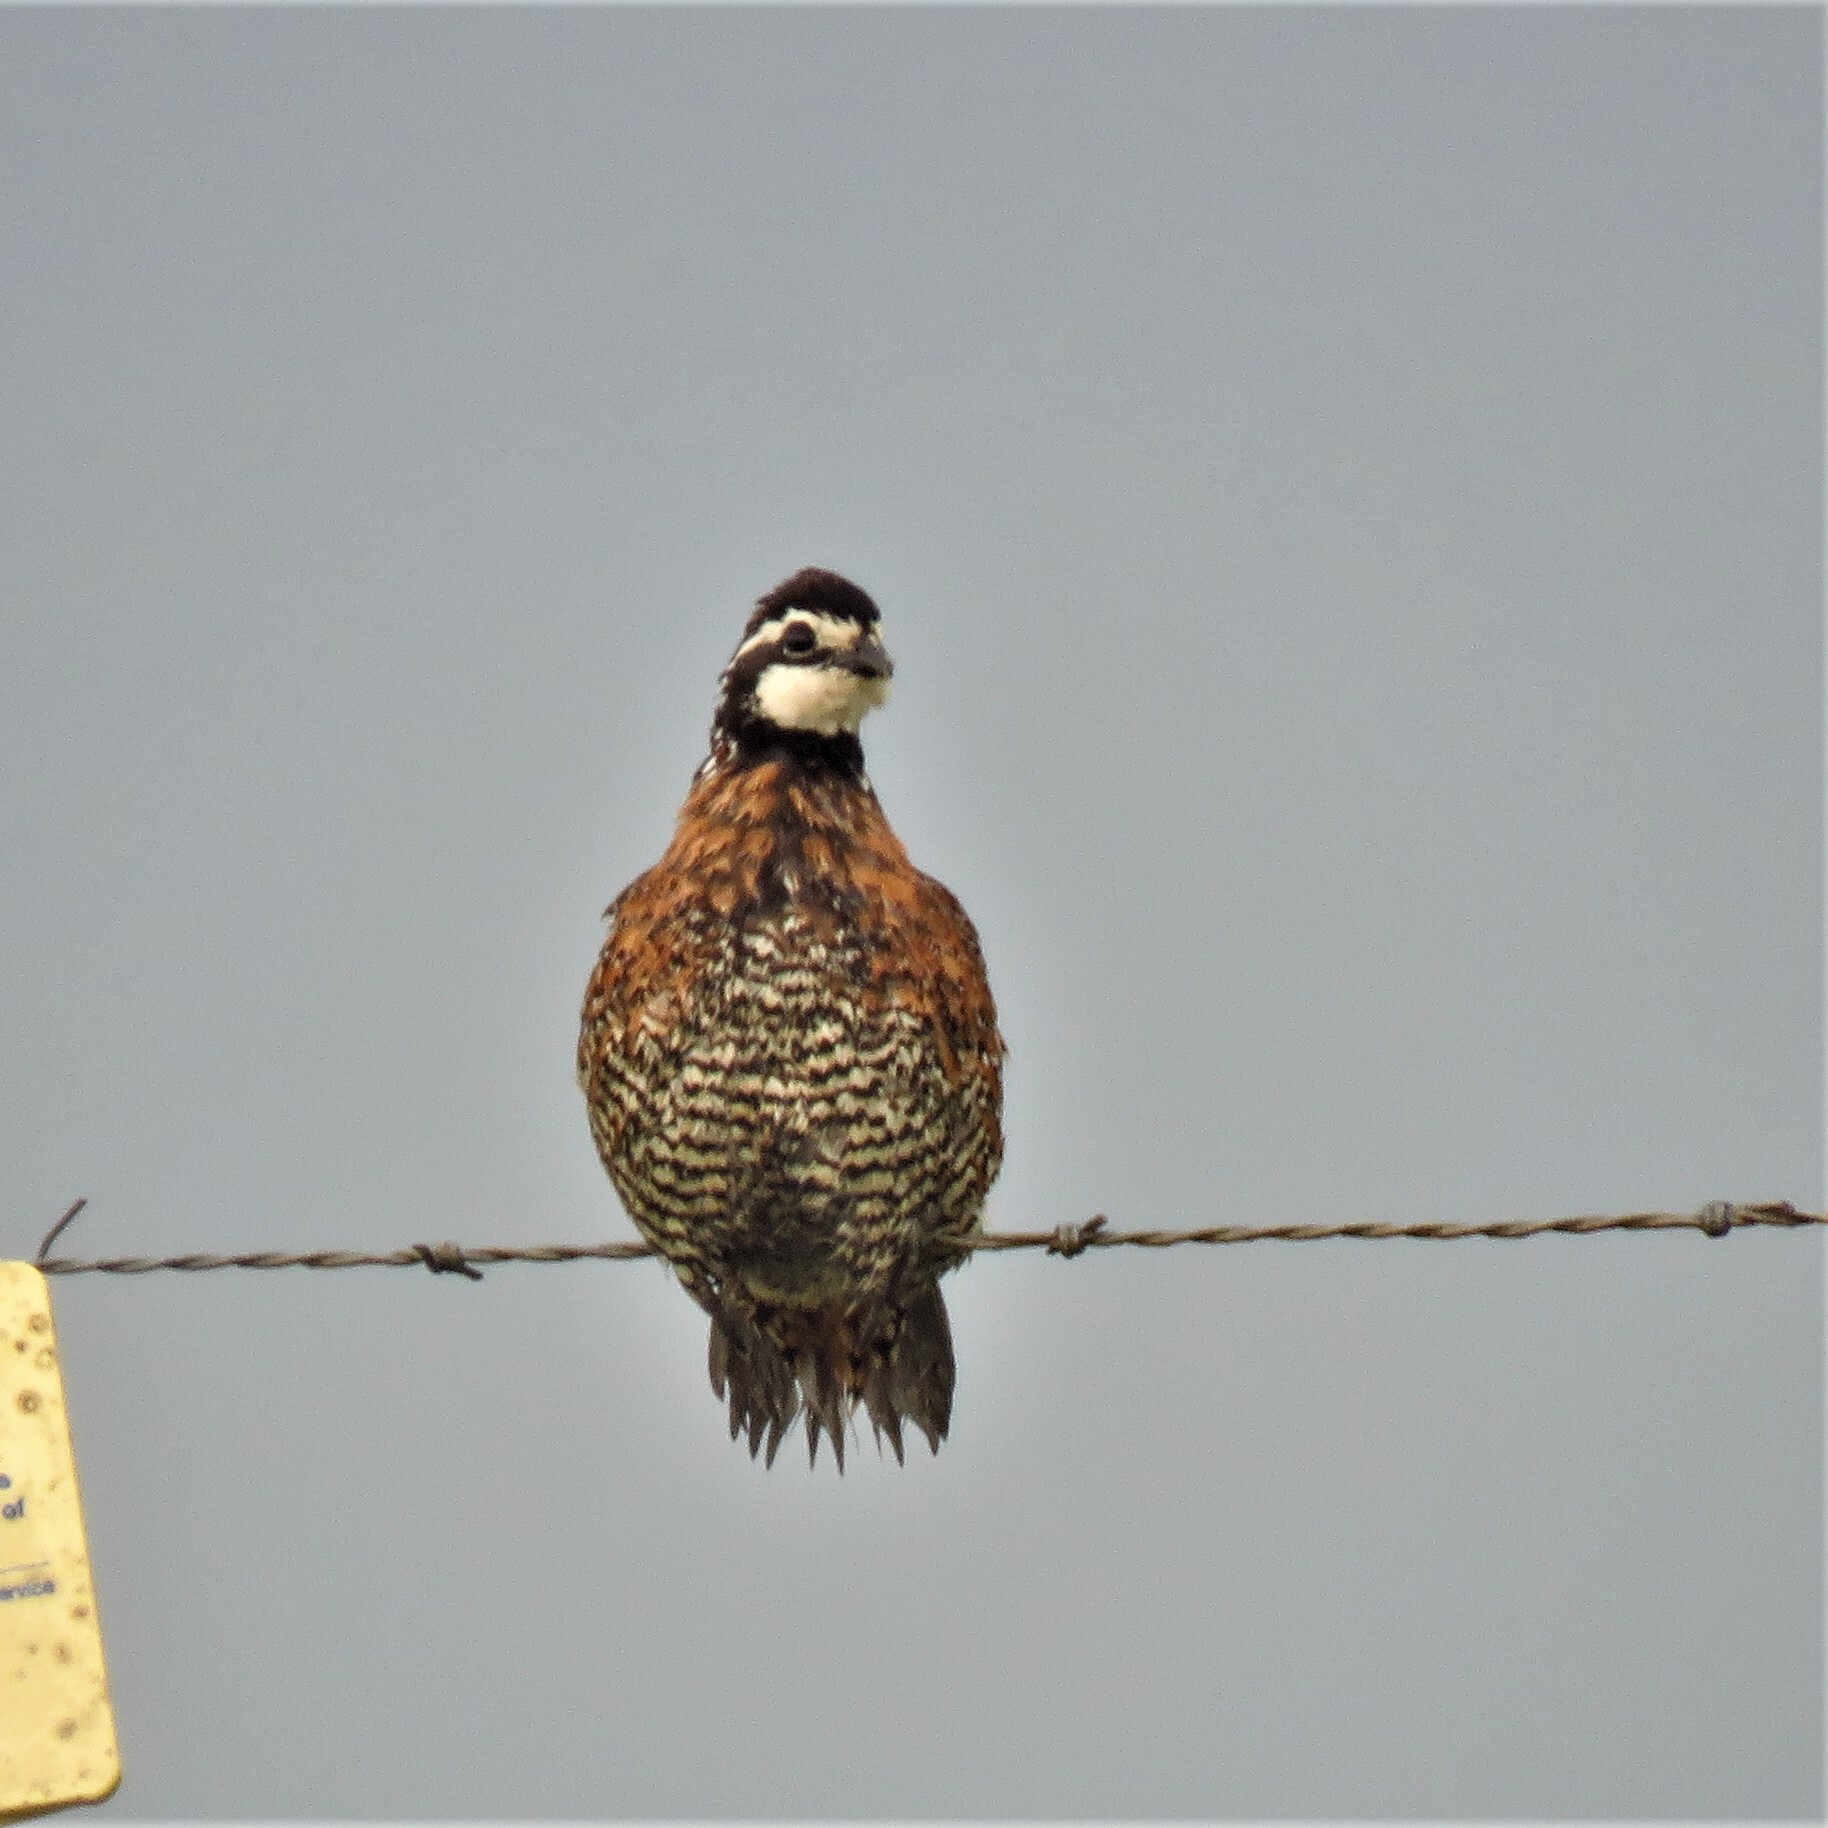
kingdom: Animalia
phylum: Chordata
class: Aves
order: Galliformes
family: Odontophoridae
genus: Colinus
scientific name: Colinus virginianus
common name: Northern bobwhite
